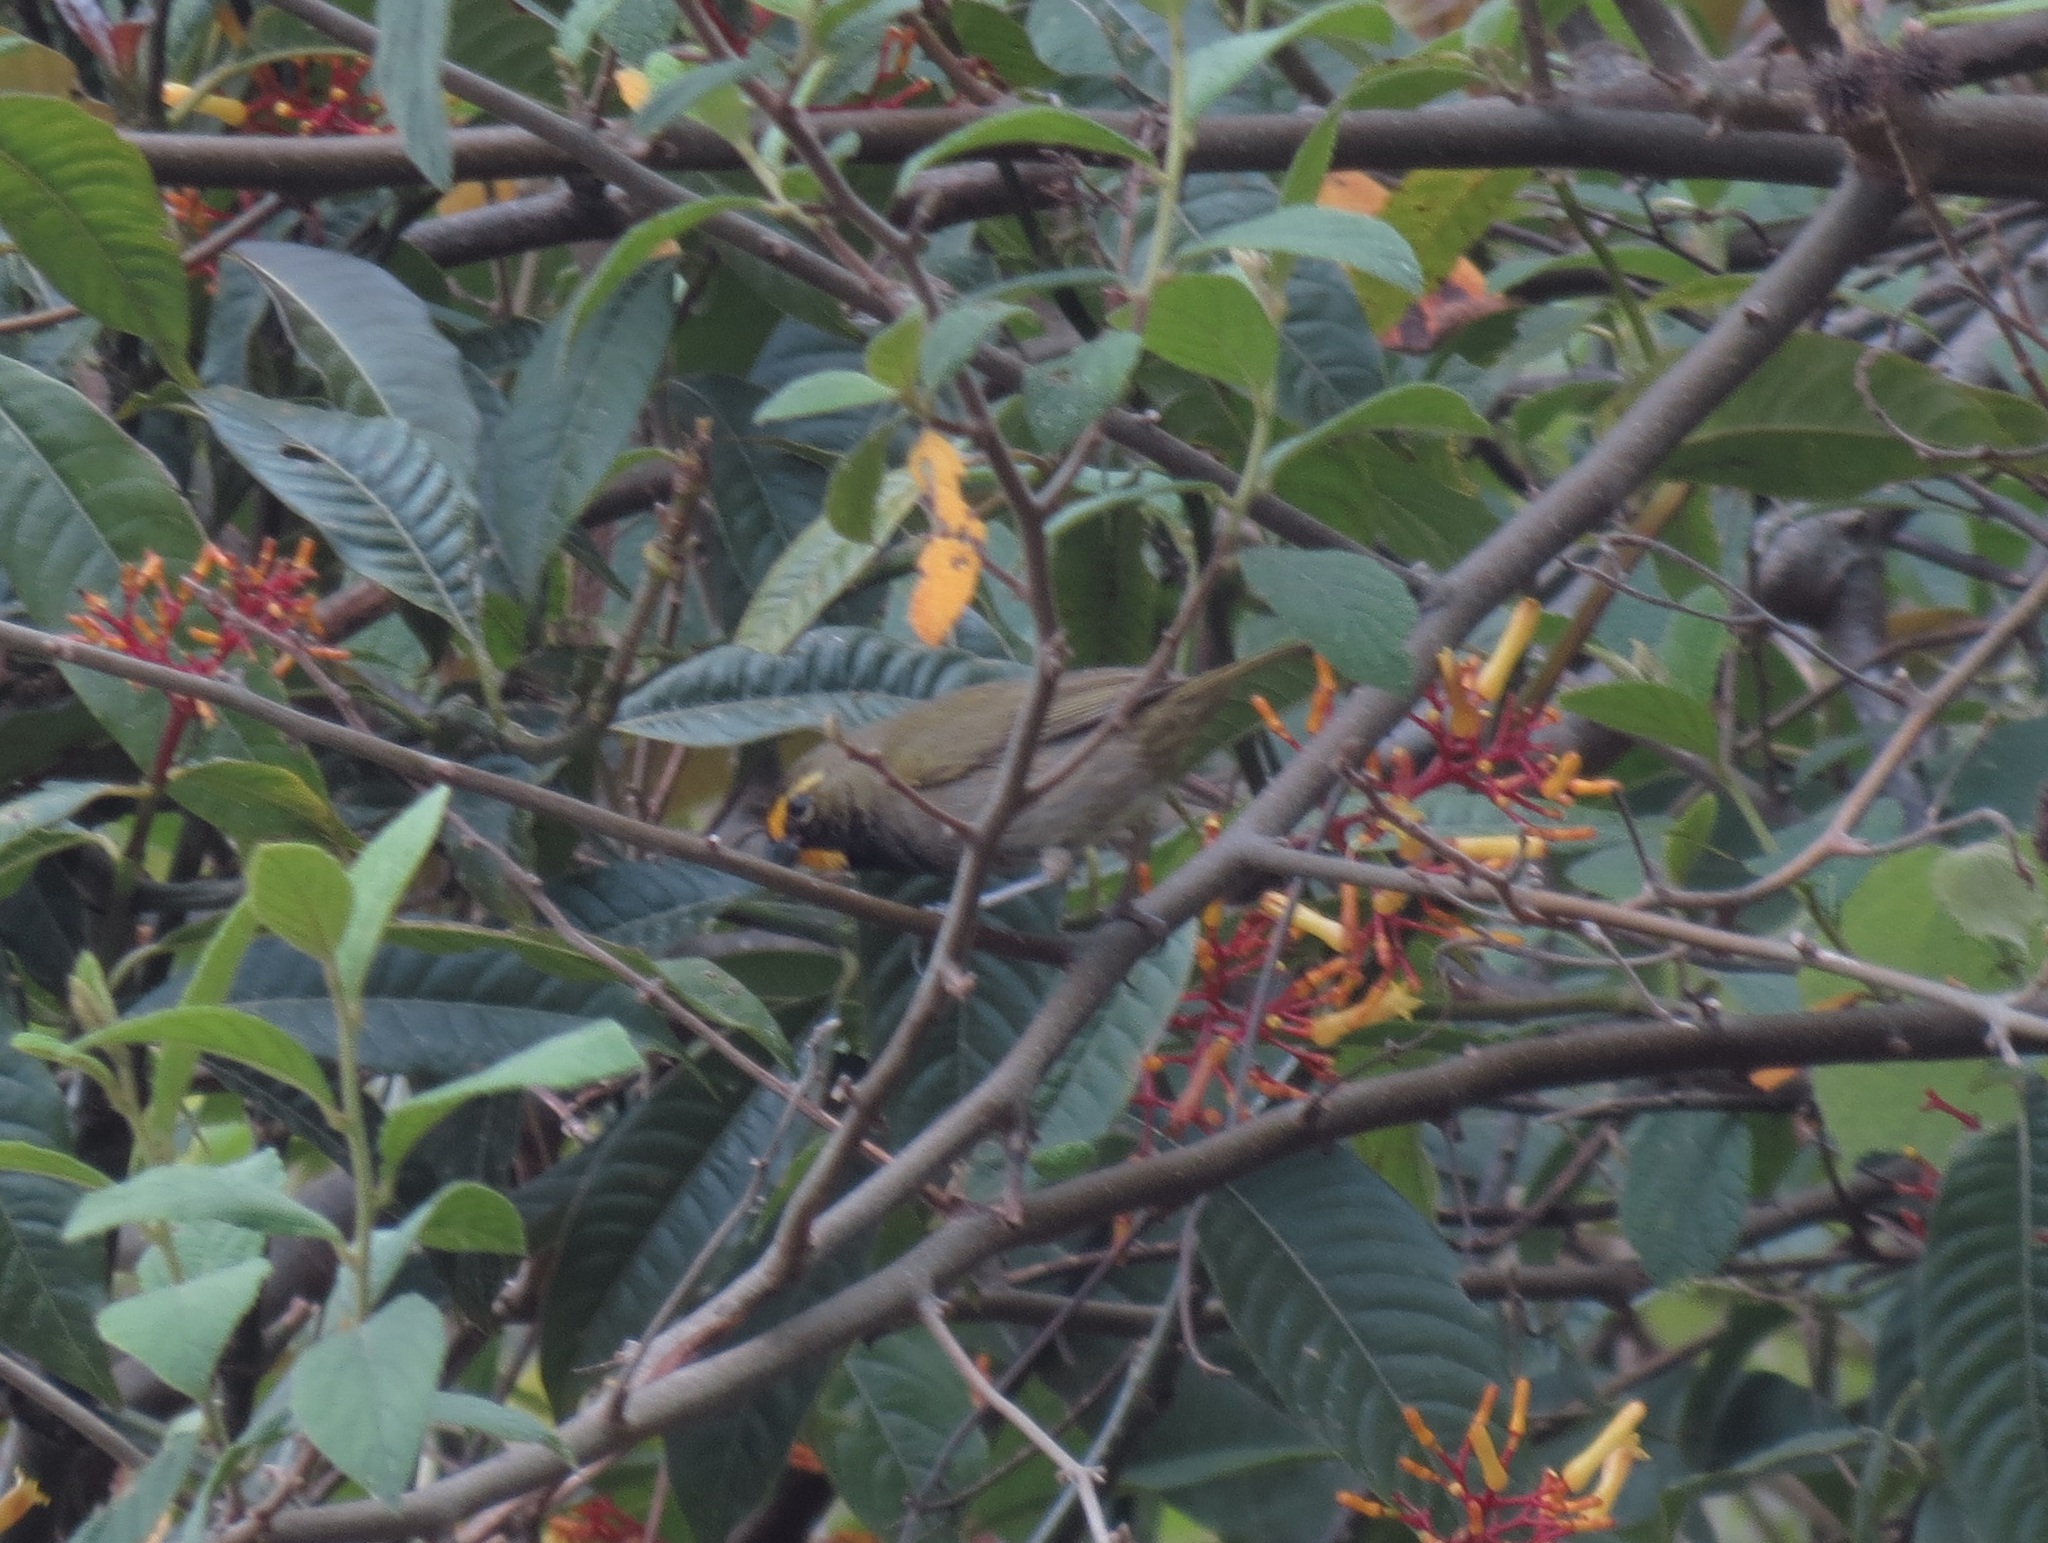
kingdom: Animalia
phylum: Chordata
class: Aves
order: Passeriformes
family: Thraupidae
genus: Tiaris
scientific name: Tiaris olivaceus
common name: Yellow-faced grassquit
